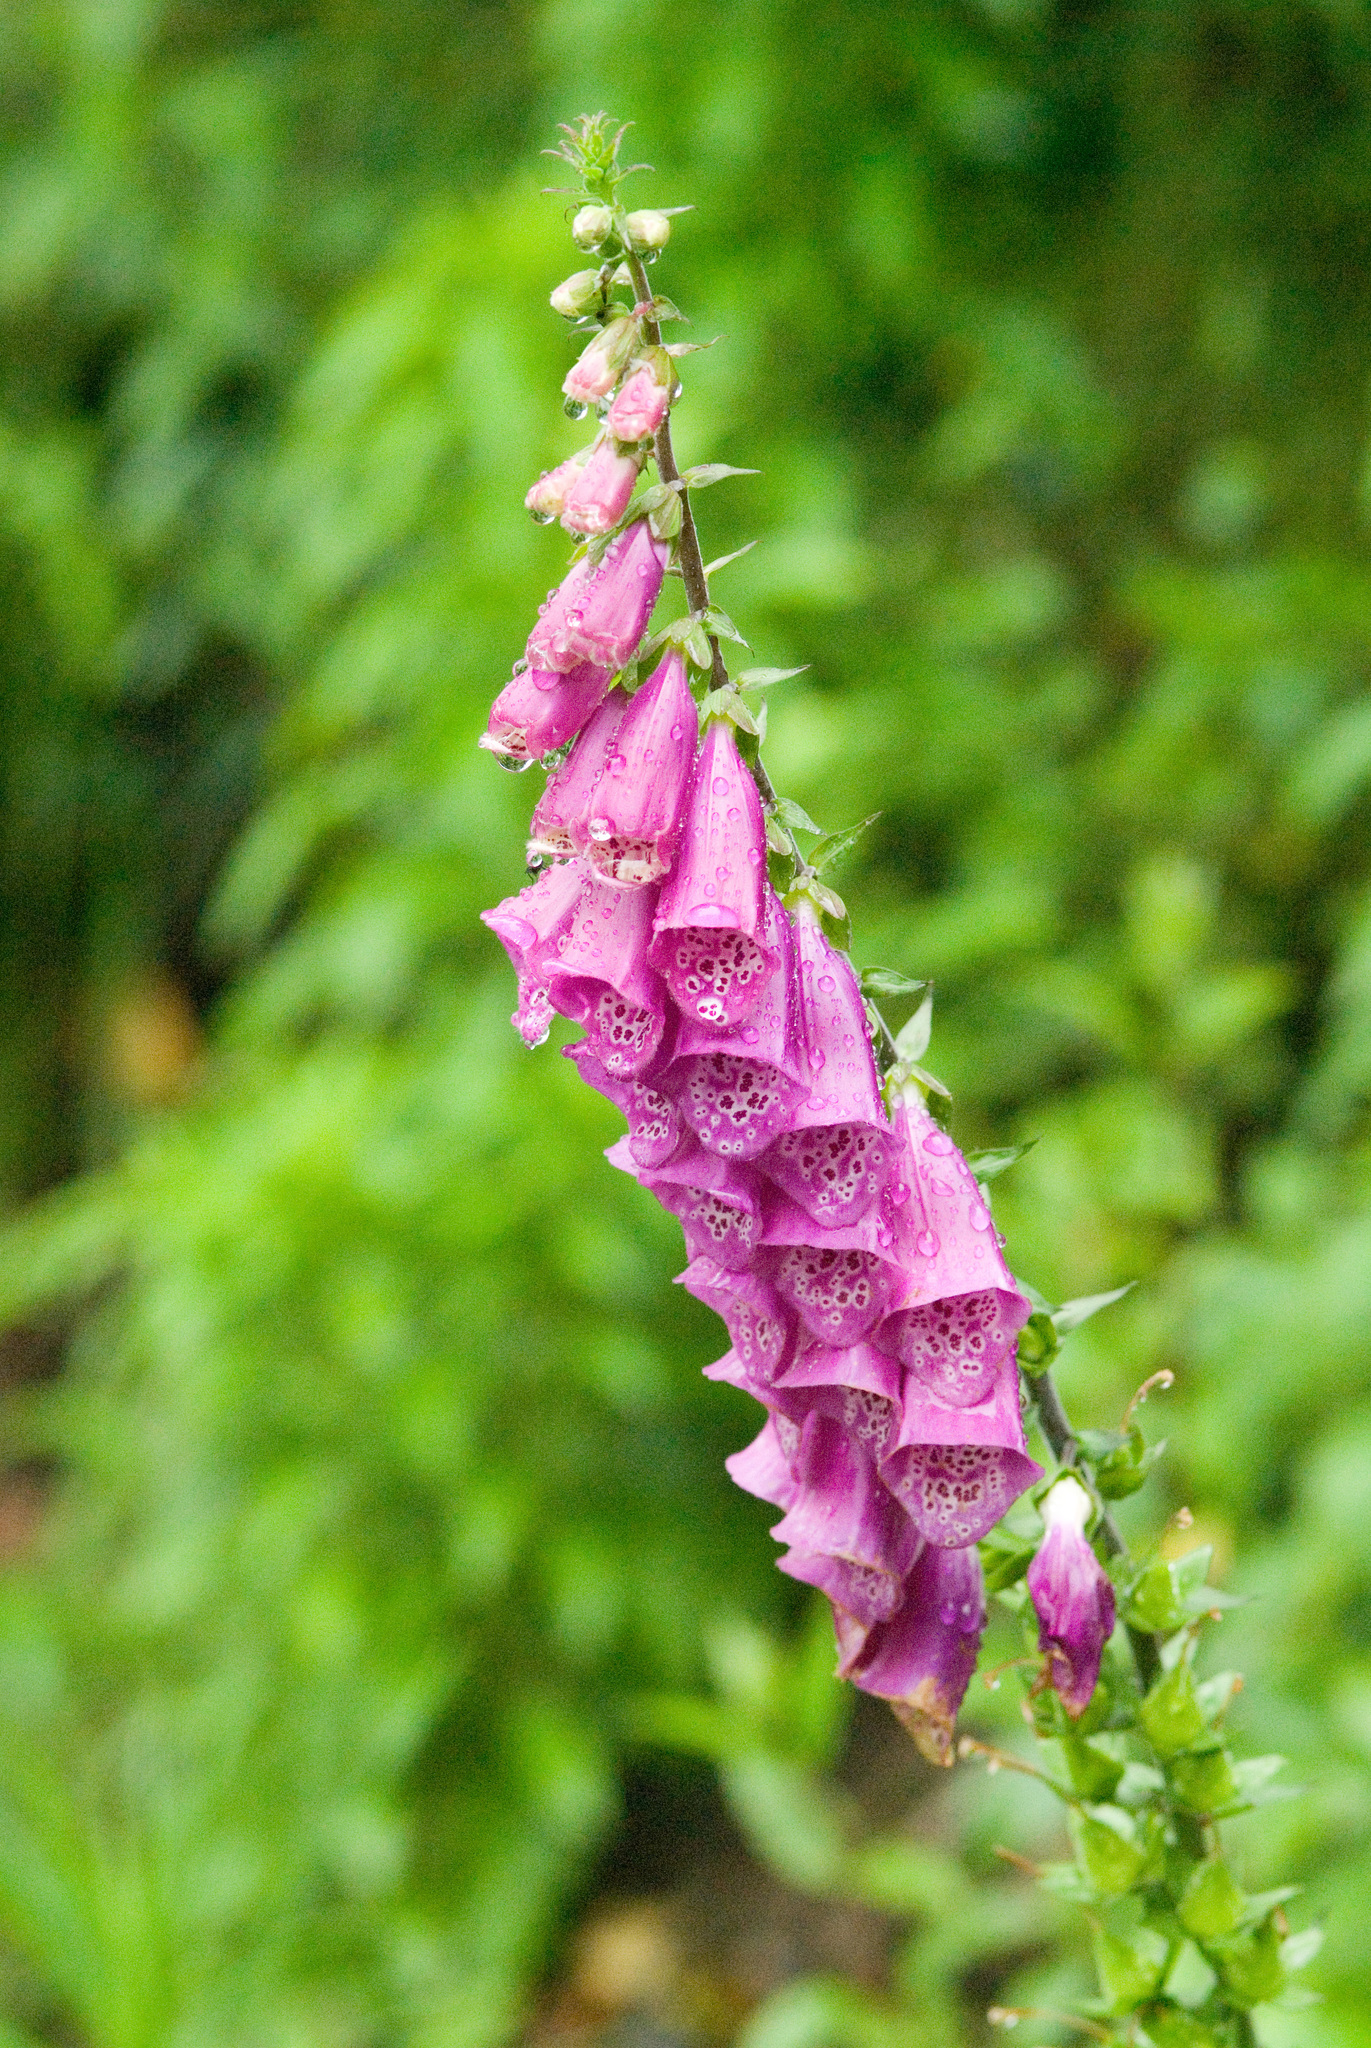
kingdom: Plantae
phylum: Tracheophyta
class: Magnoliopsida
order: Lamiales
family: Plantaginaceae
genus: Digitalis
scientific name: Digitalis purpurea
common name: Foxglove
